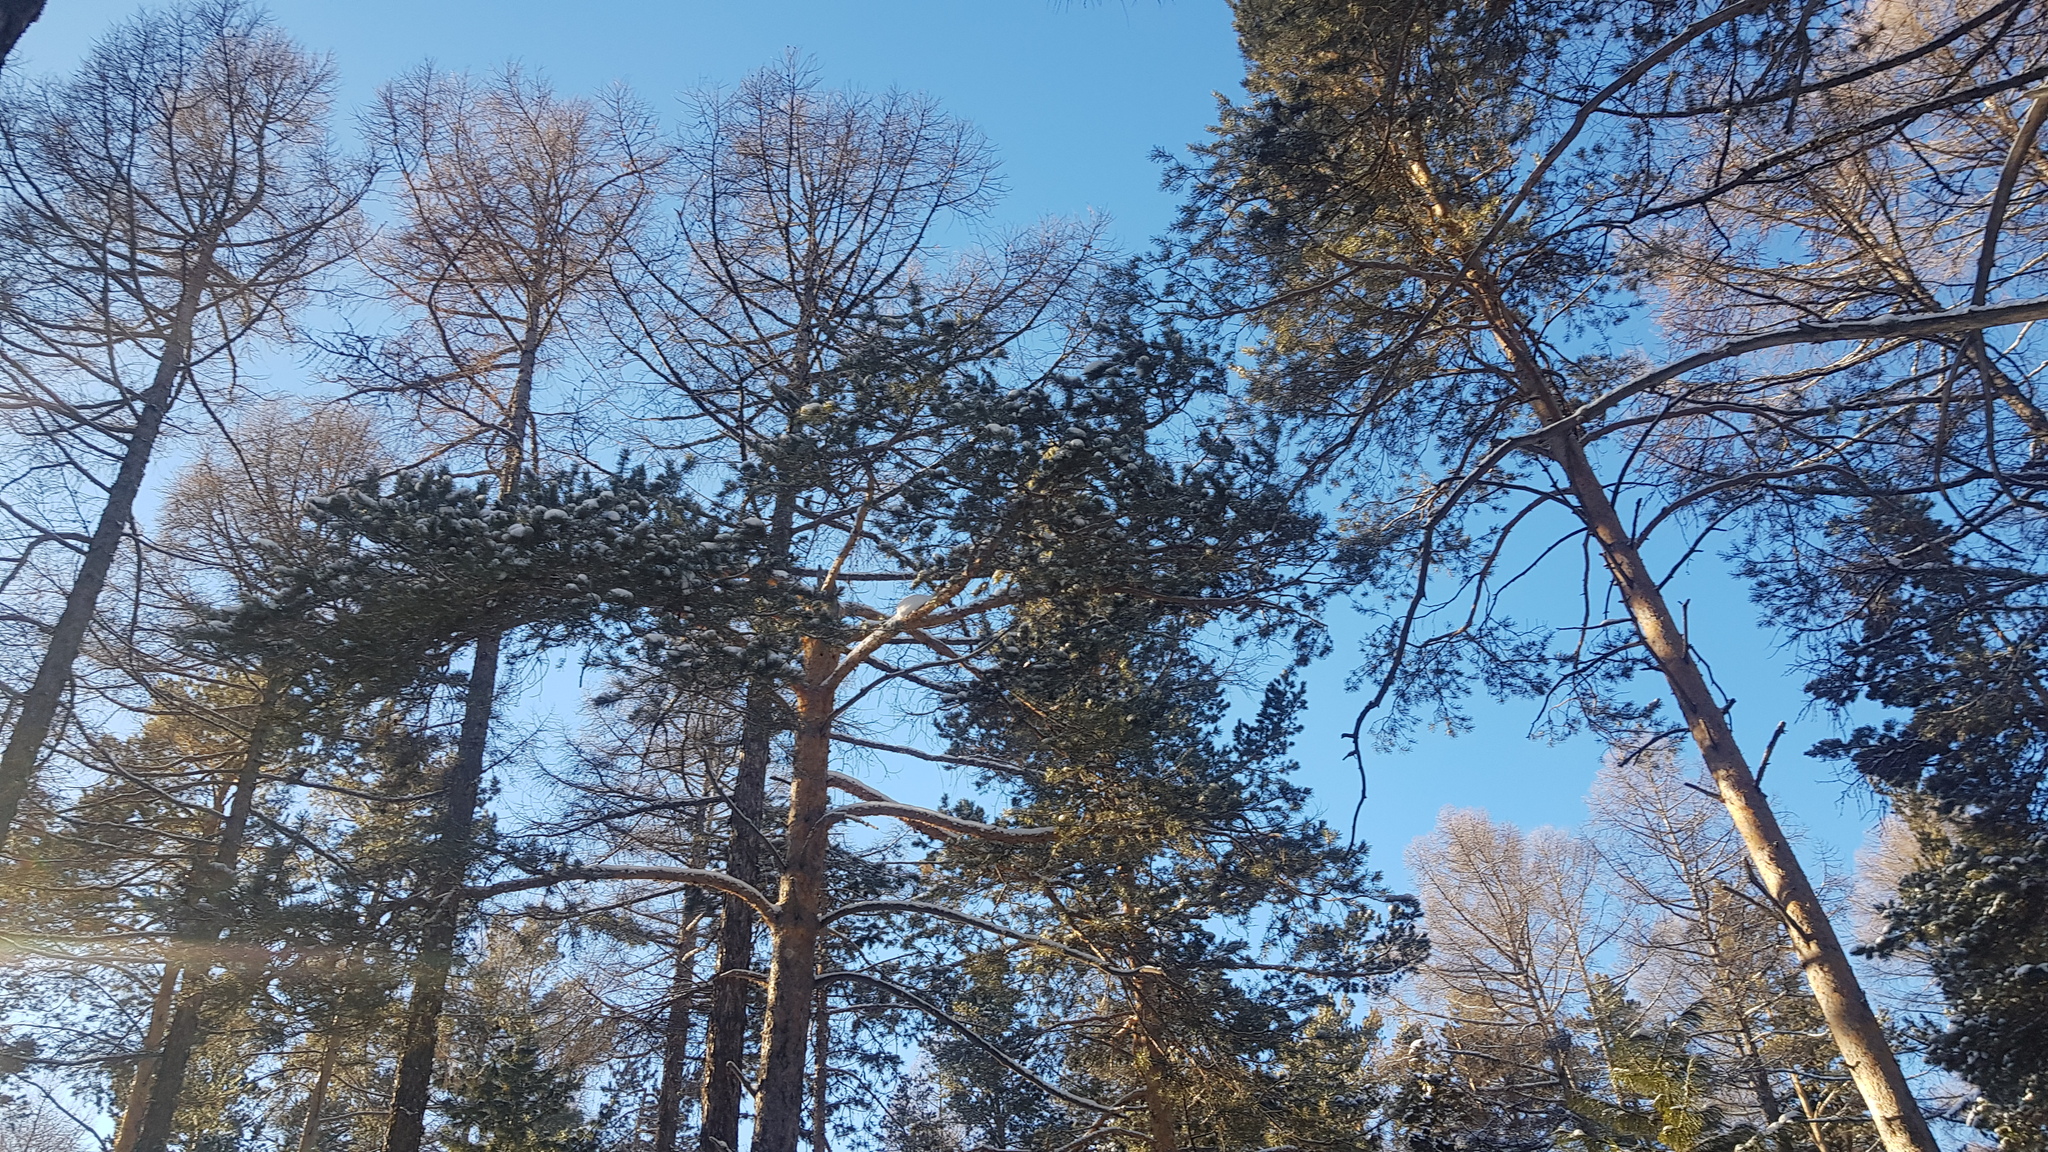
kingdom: Plantae
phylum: Tracheophyta
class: Pinopsida
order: Pinales
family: Pinaceae
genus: Pinus
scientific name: Pinus sylvestris
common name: Scots pine
